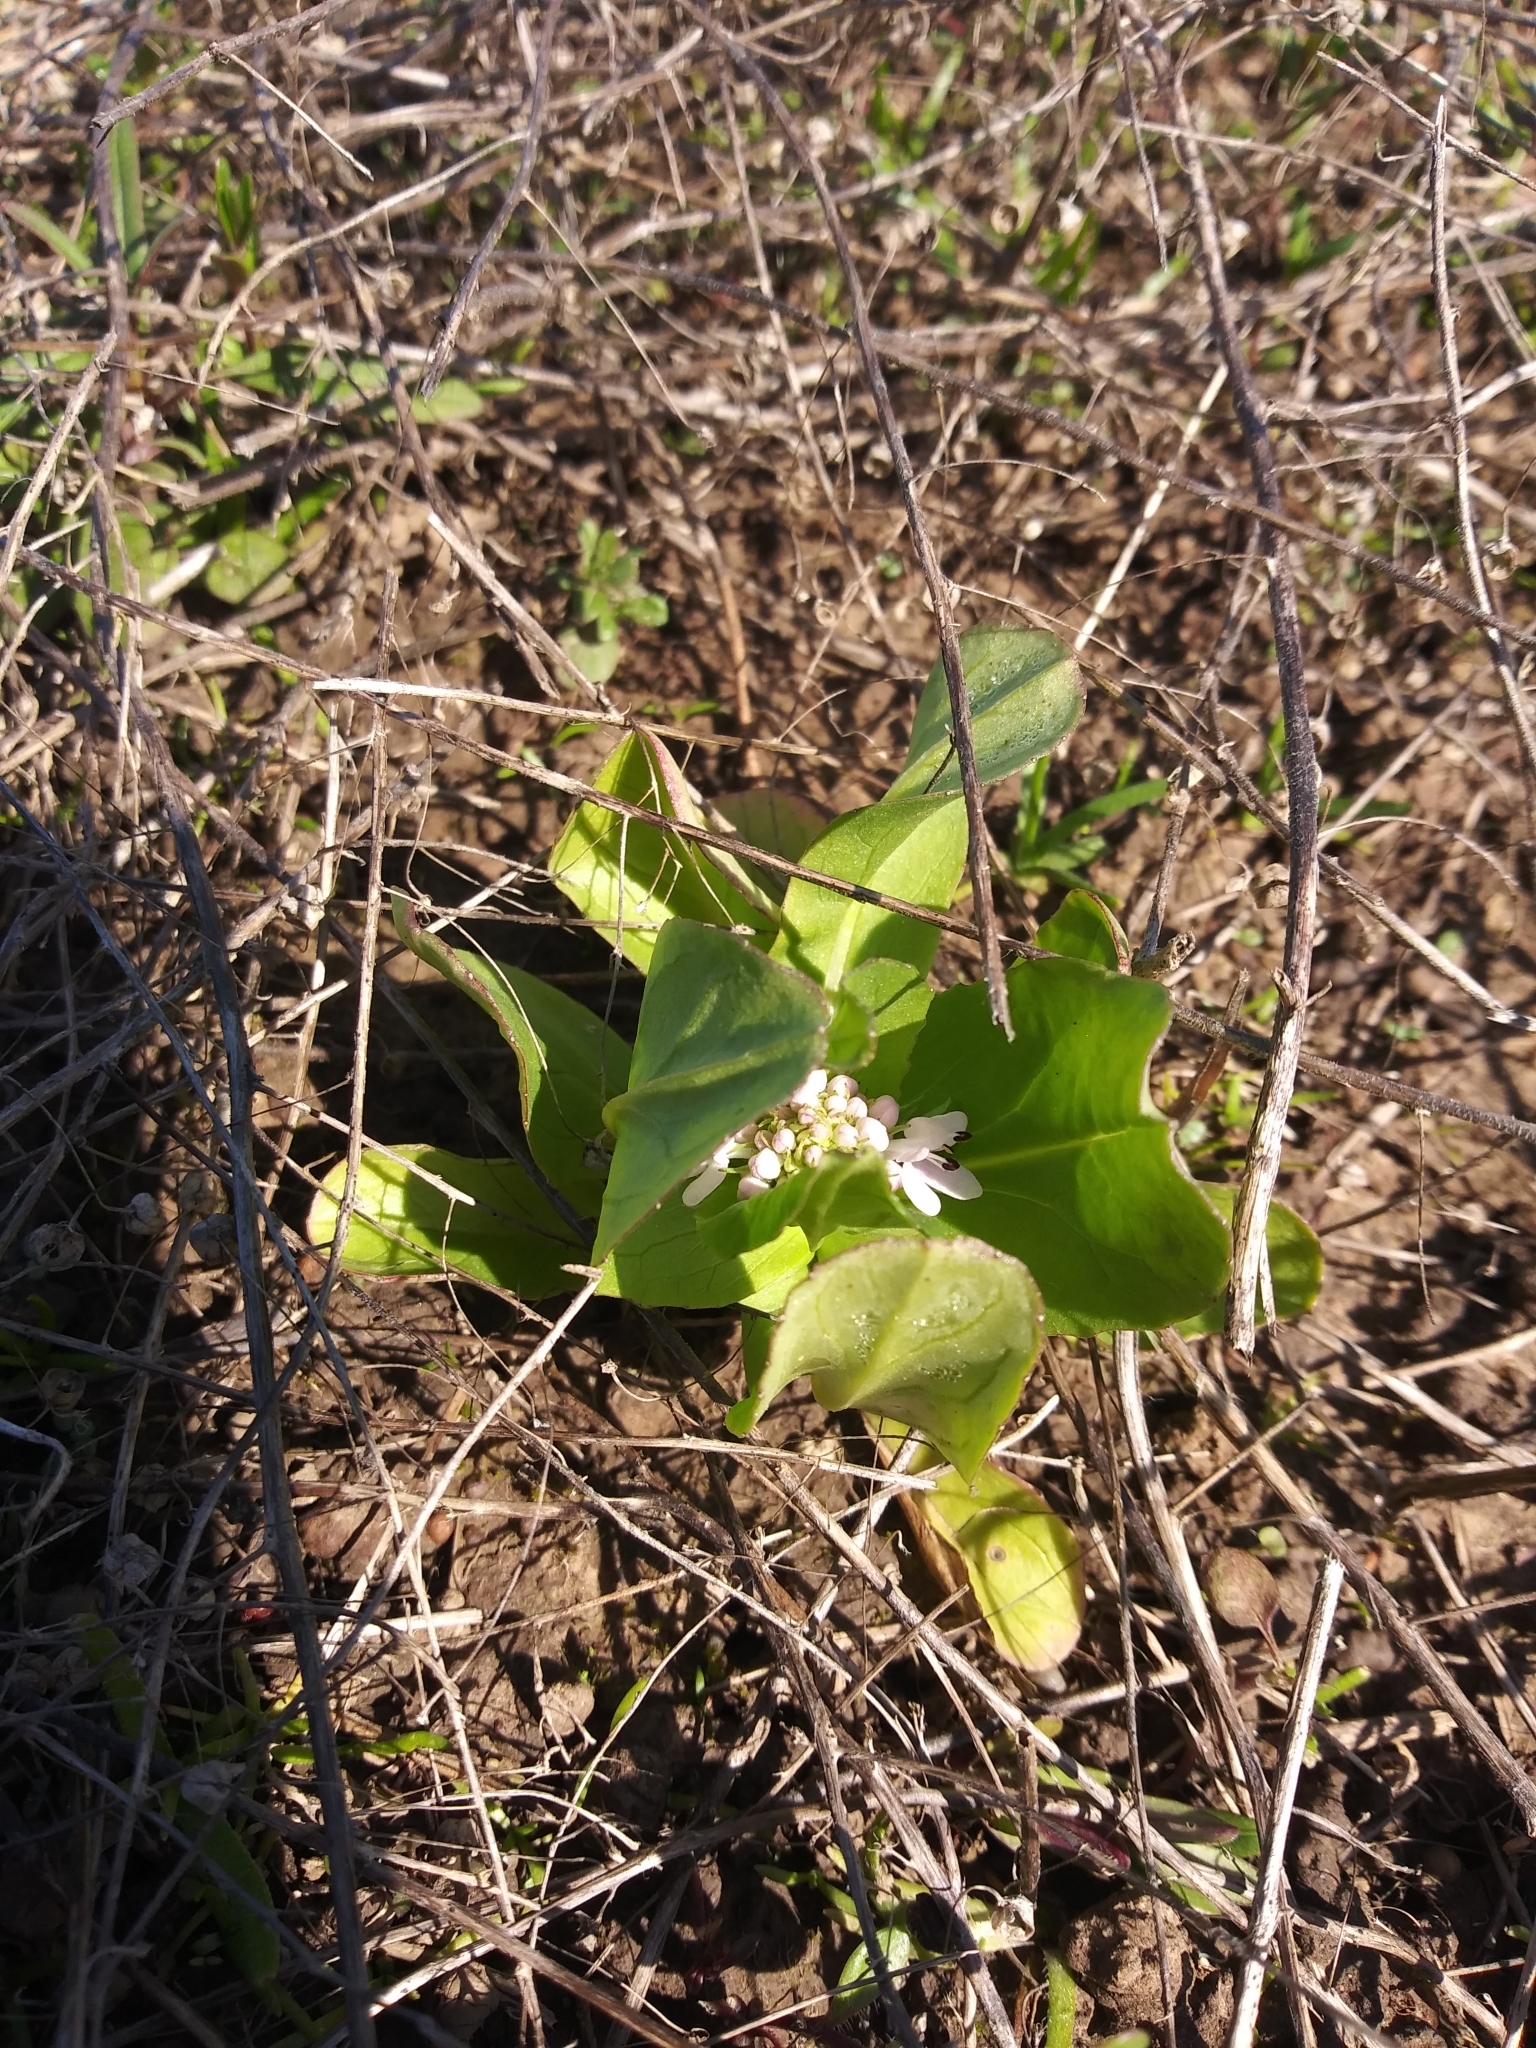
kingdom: Plantae
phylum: Tracheophyta
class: Magnoliopsida
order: Dipsacales
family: Caprifoliaceae
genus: Plectritis
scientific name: Plectritis congesta
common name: Pink plectritis
